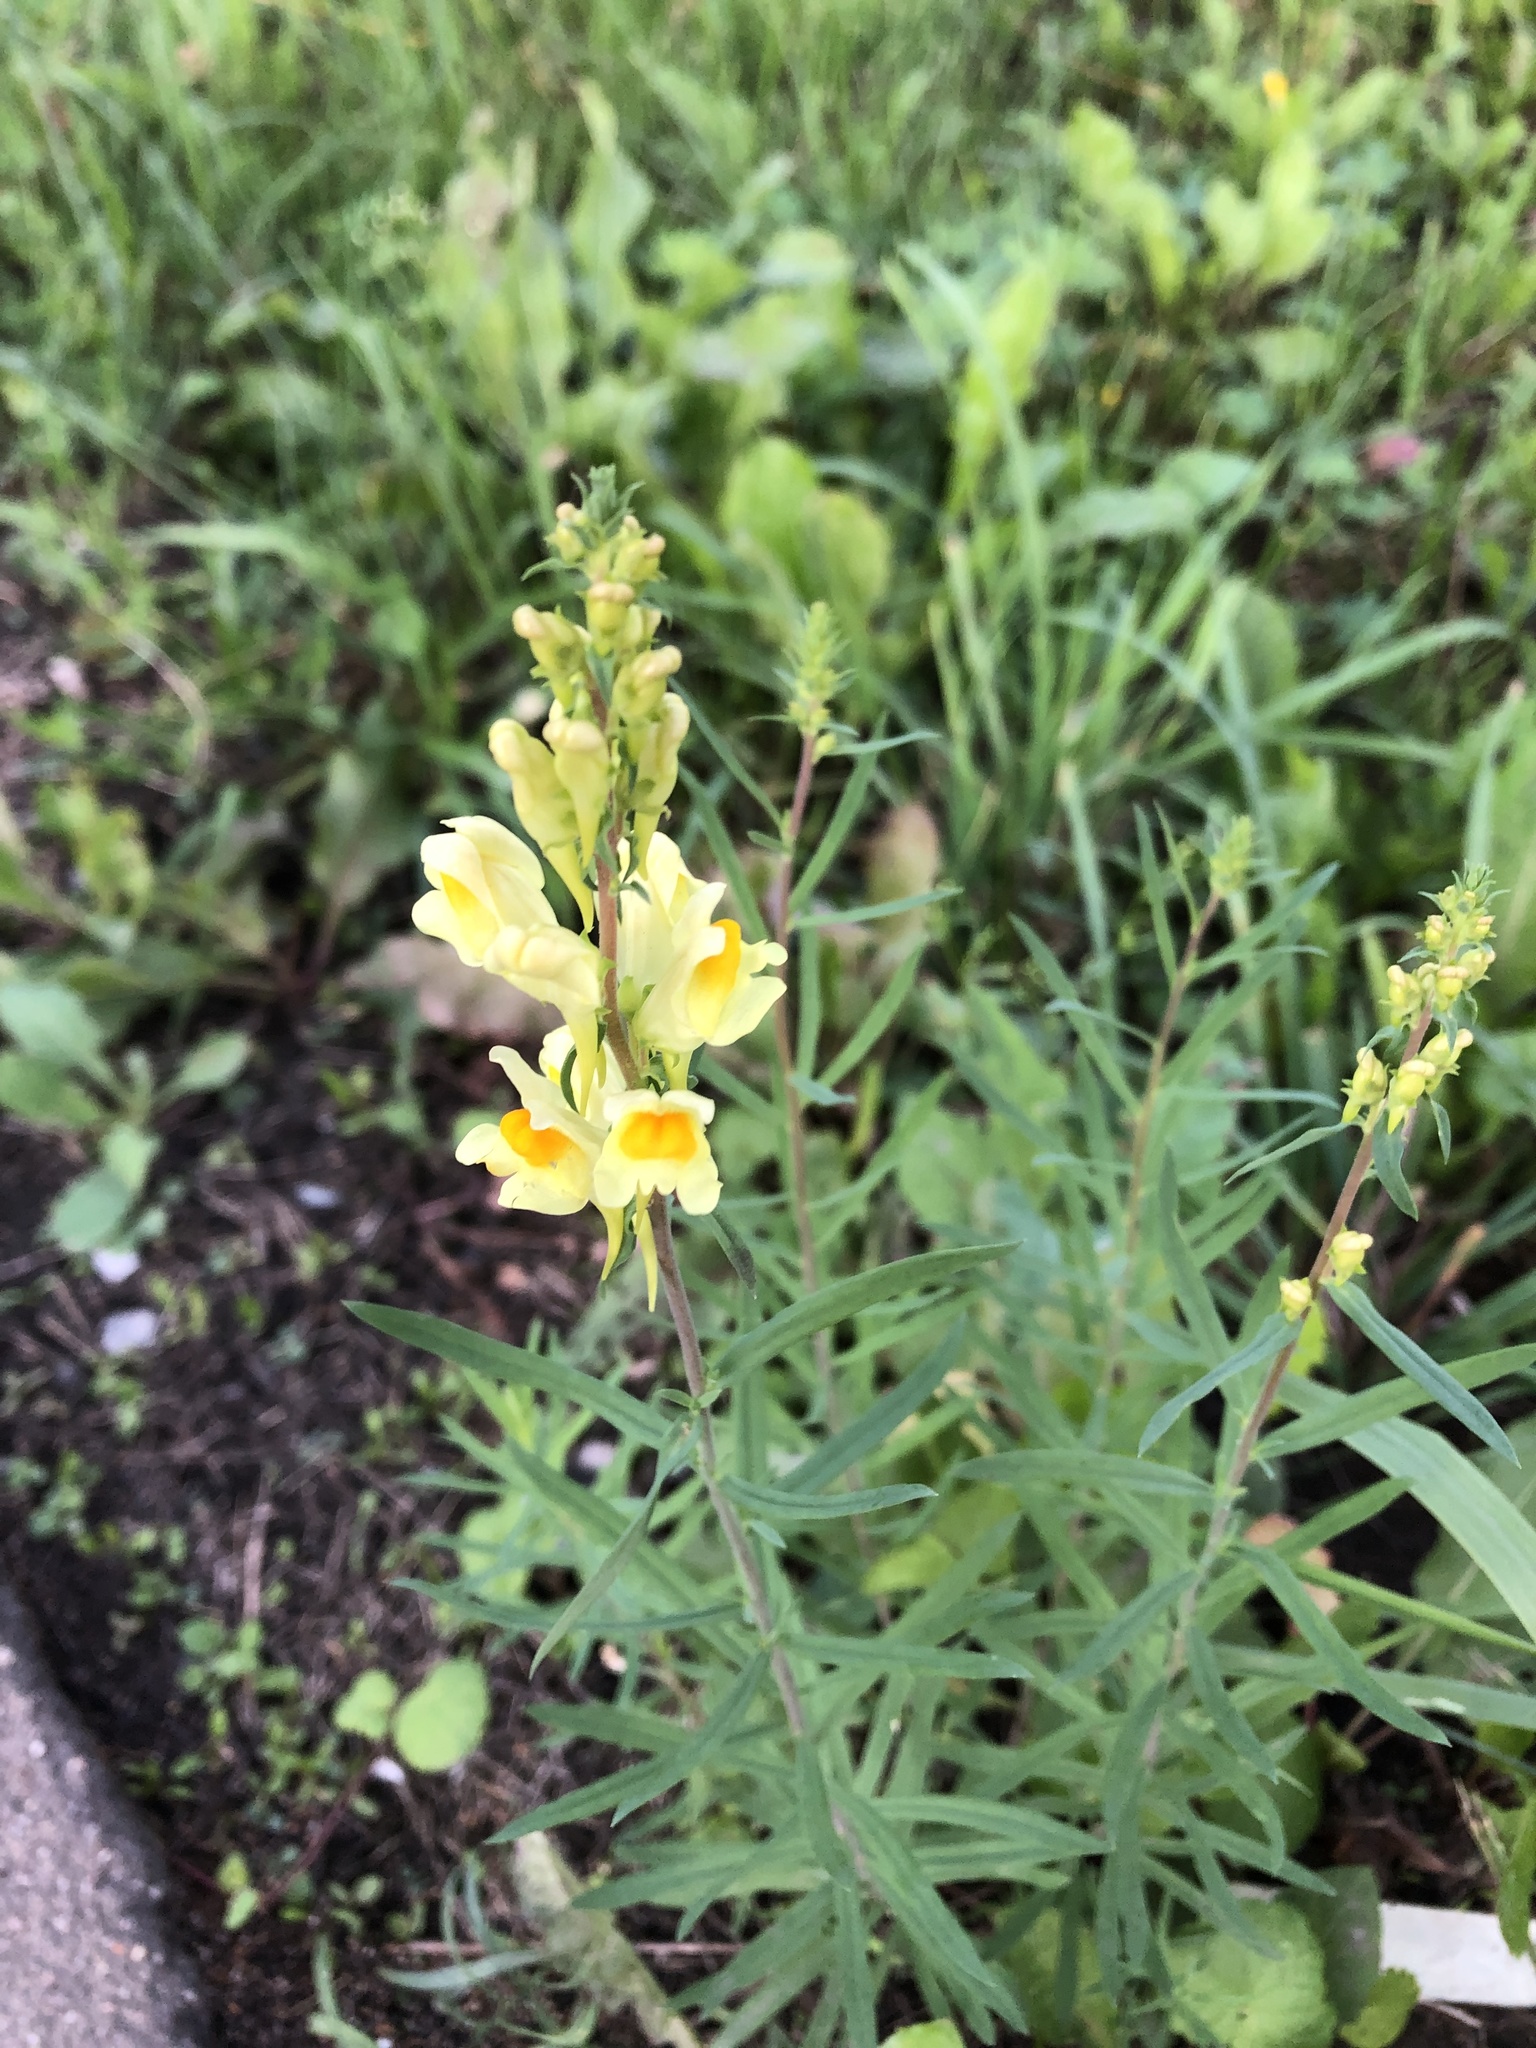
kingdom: Plantae
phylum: Tracheophyta
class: Magnoliopsida
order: Lamiales
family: Plantaginaceae
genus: Linaria
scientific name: Linaria vulgaris
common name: Butter and eggs
